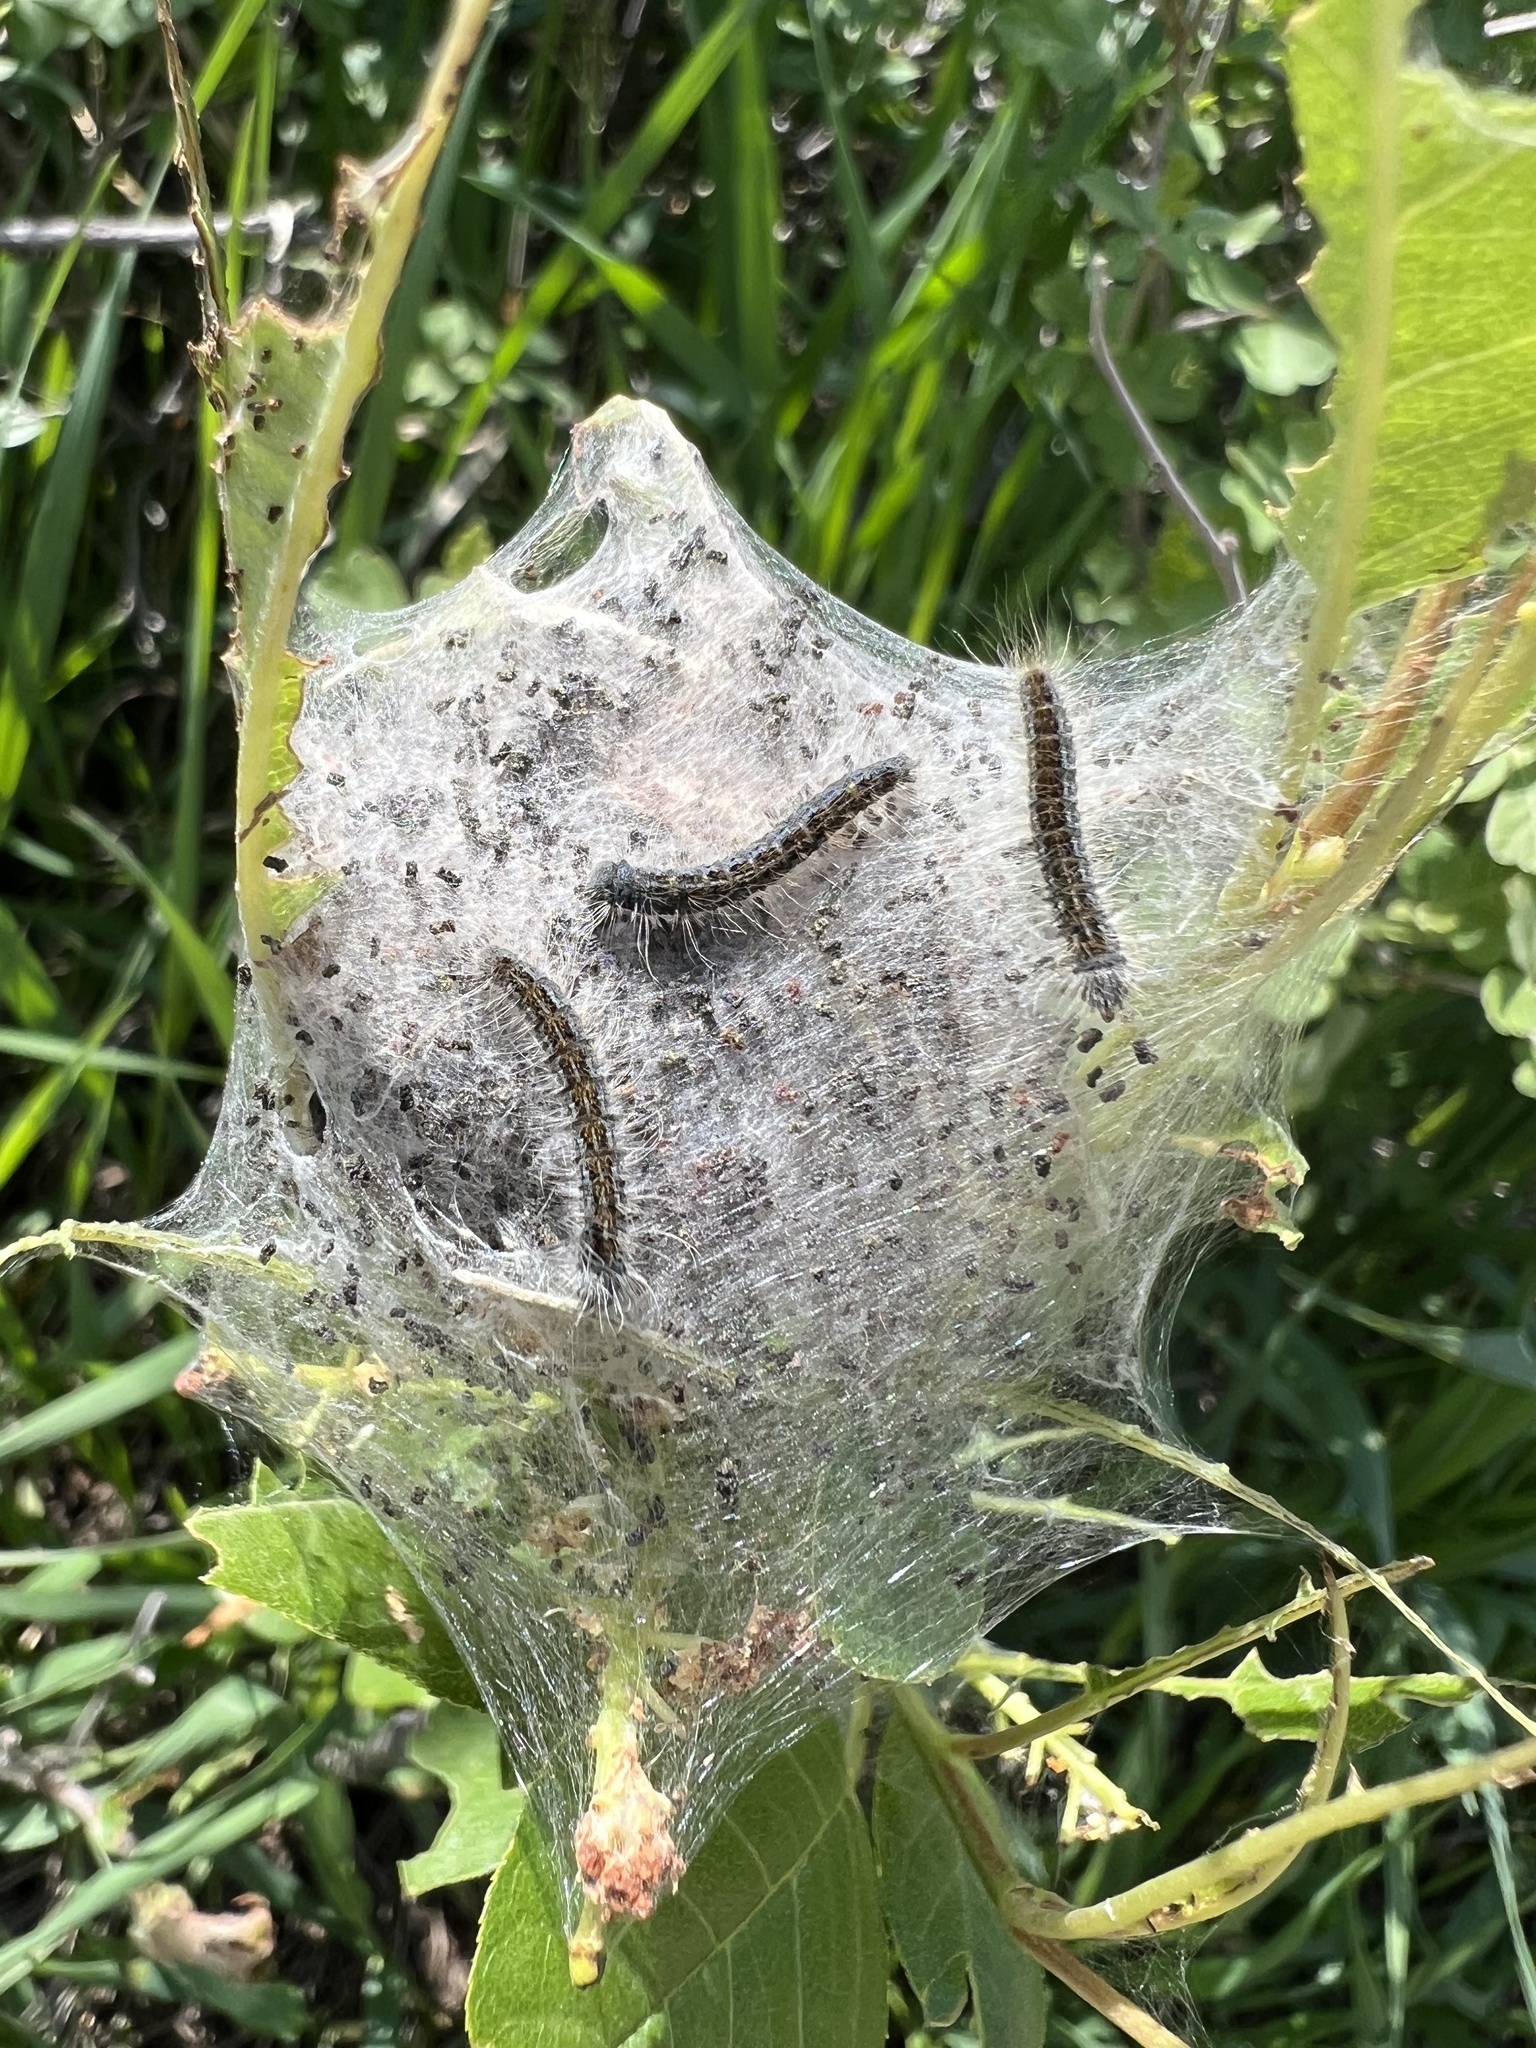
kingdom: Animalia
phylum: Arthropoda
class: Insecta
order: Lepidoptera
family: Lasiocampidae
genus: Malacosoma
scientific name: Malacosoma incurva
